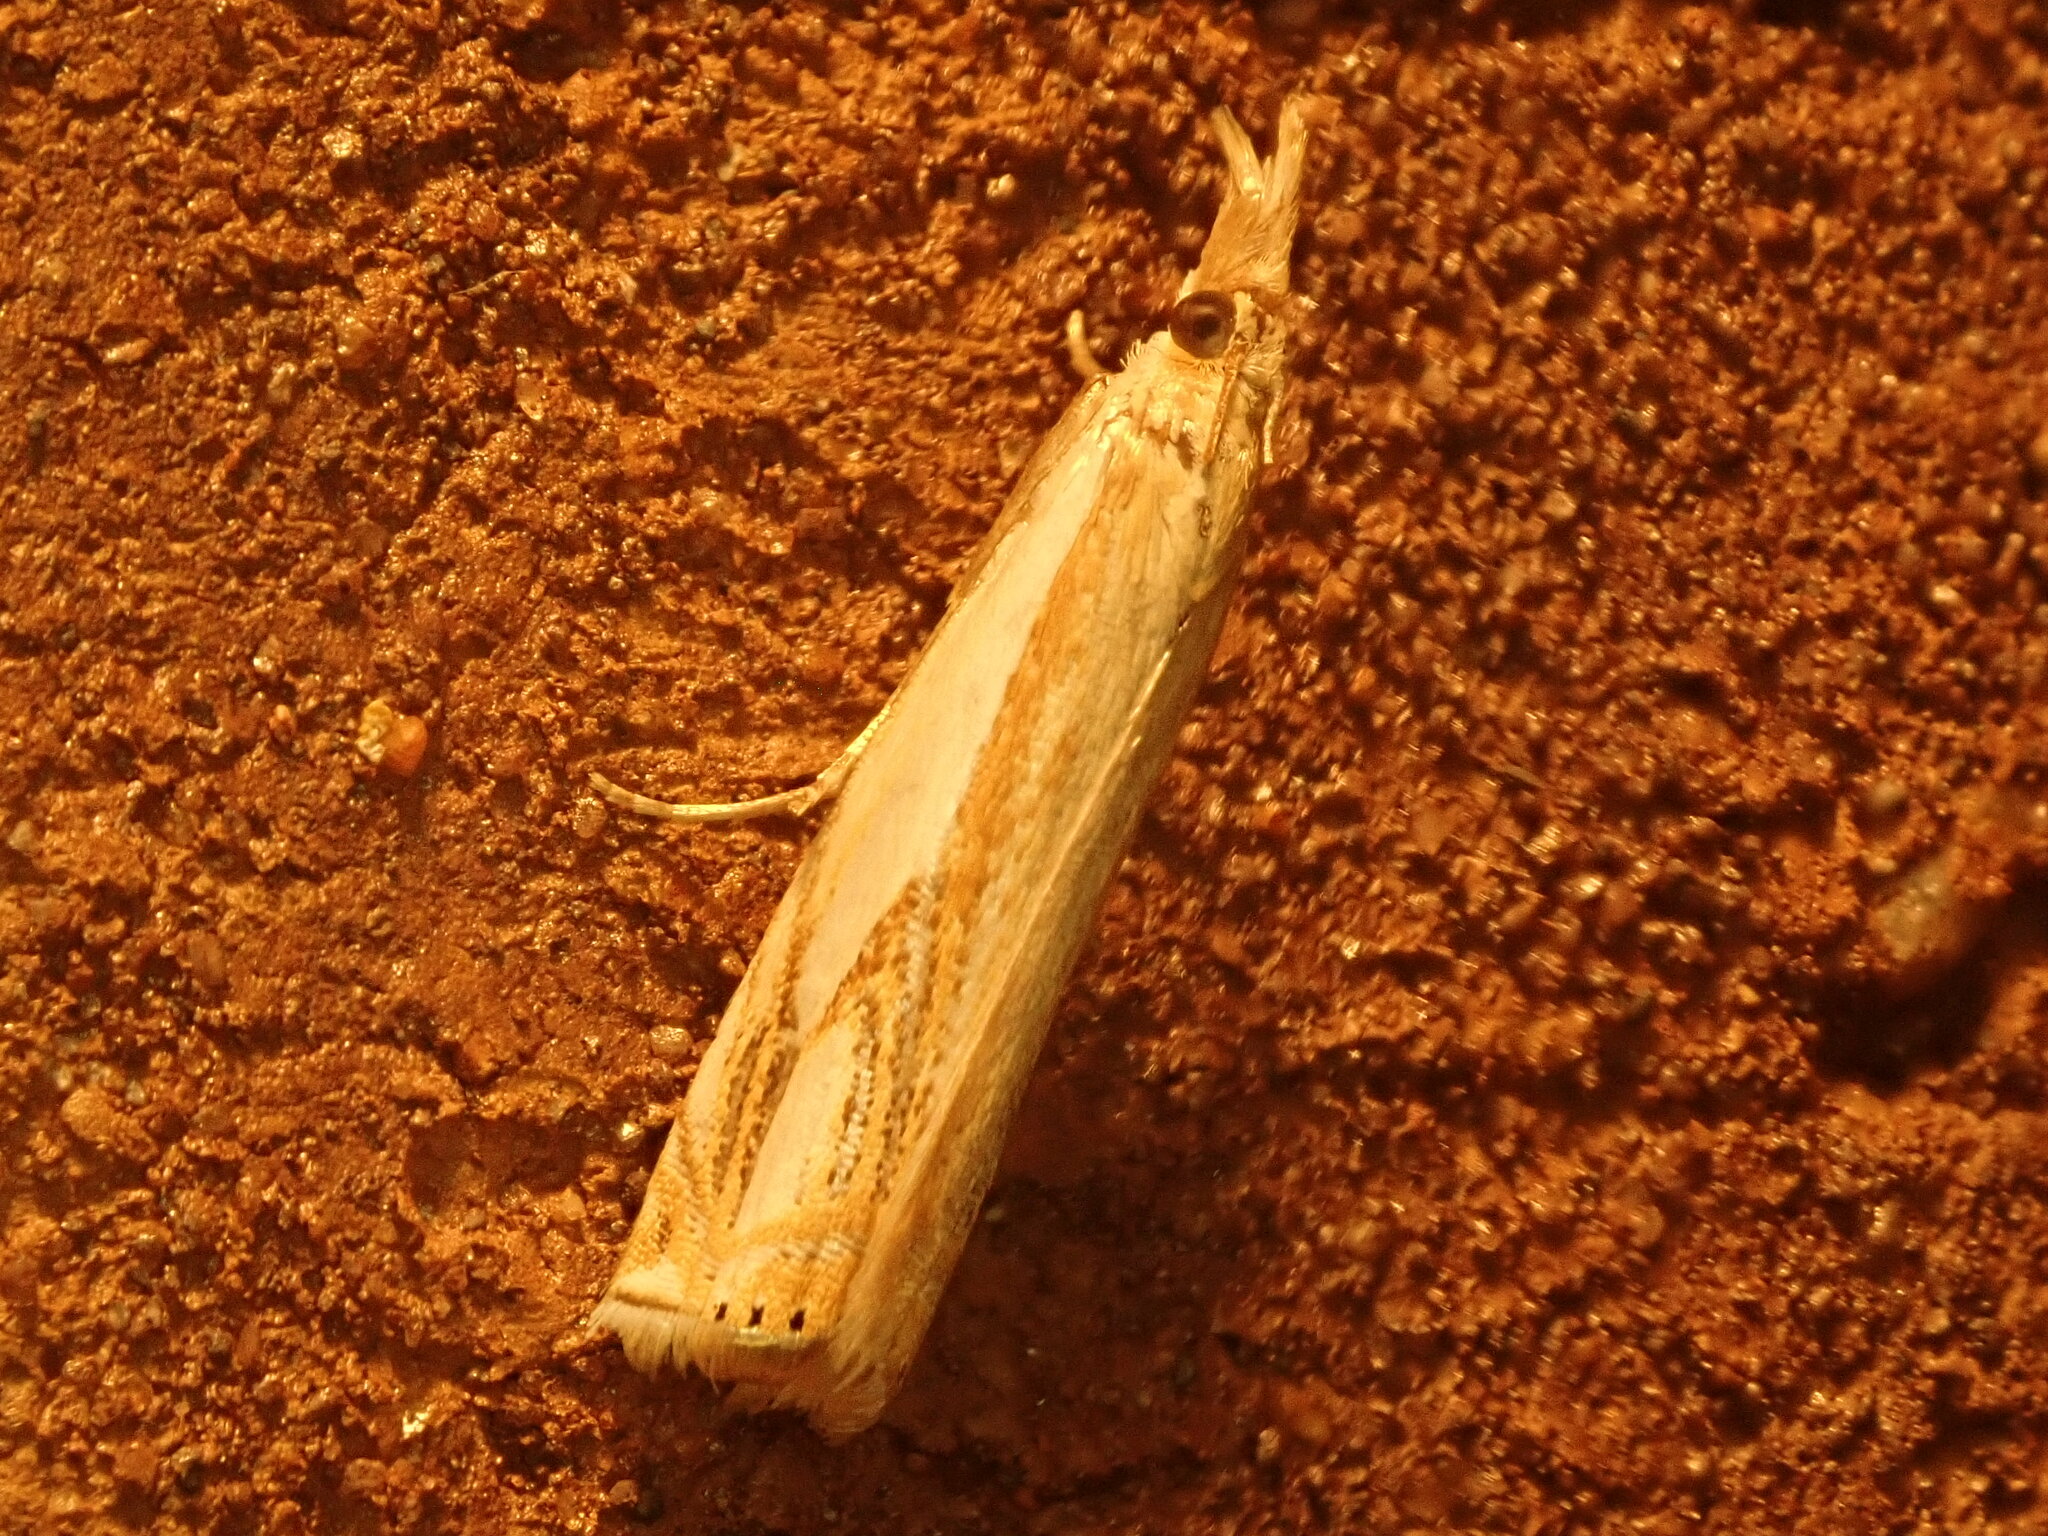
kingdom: Animalia
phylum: Arthropoda
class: Insecta
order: Lepidoptera
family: Crambidae
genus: Crambus
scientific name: Crambus agitatellus
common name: Double-banded grass-veneer
